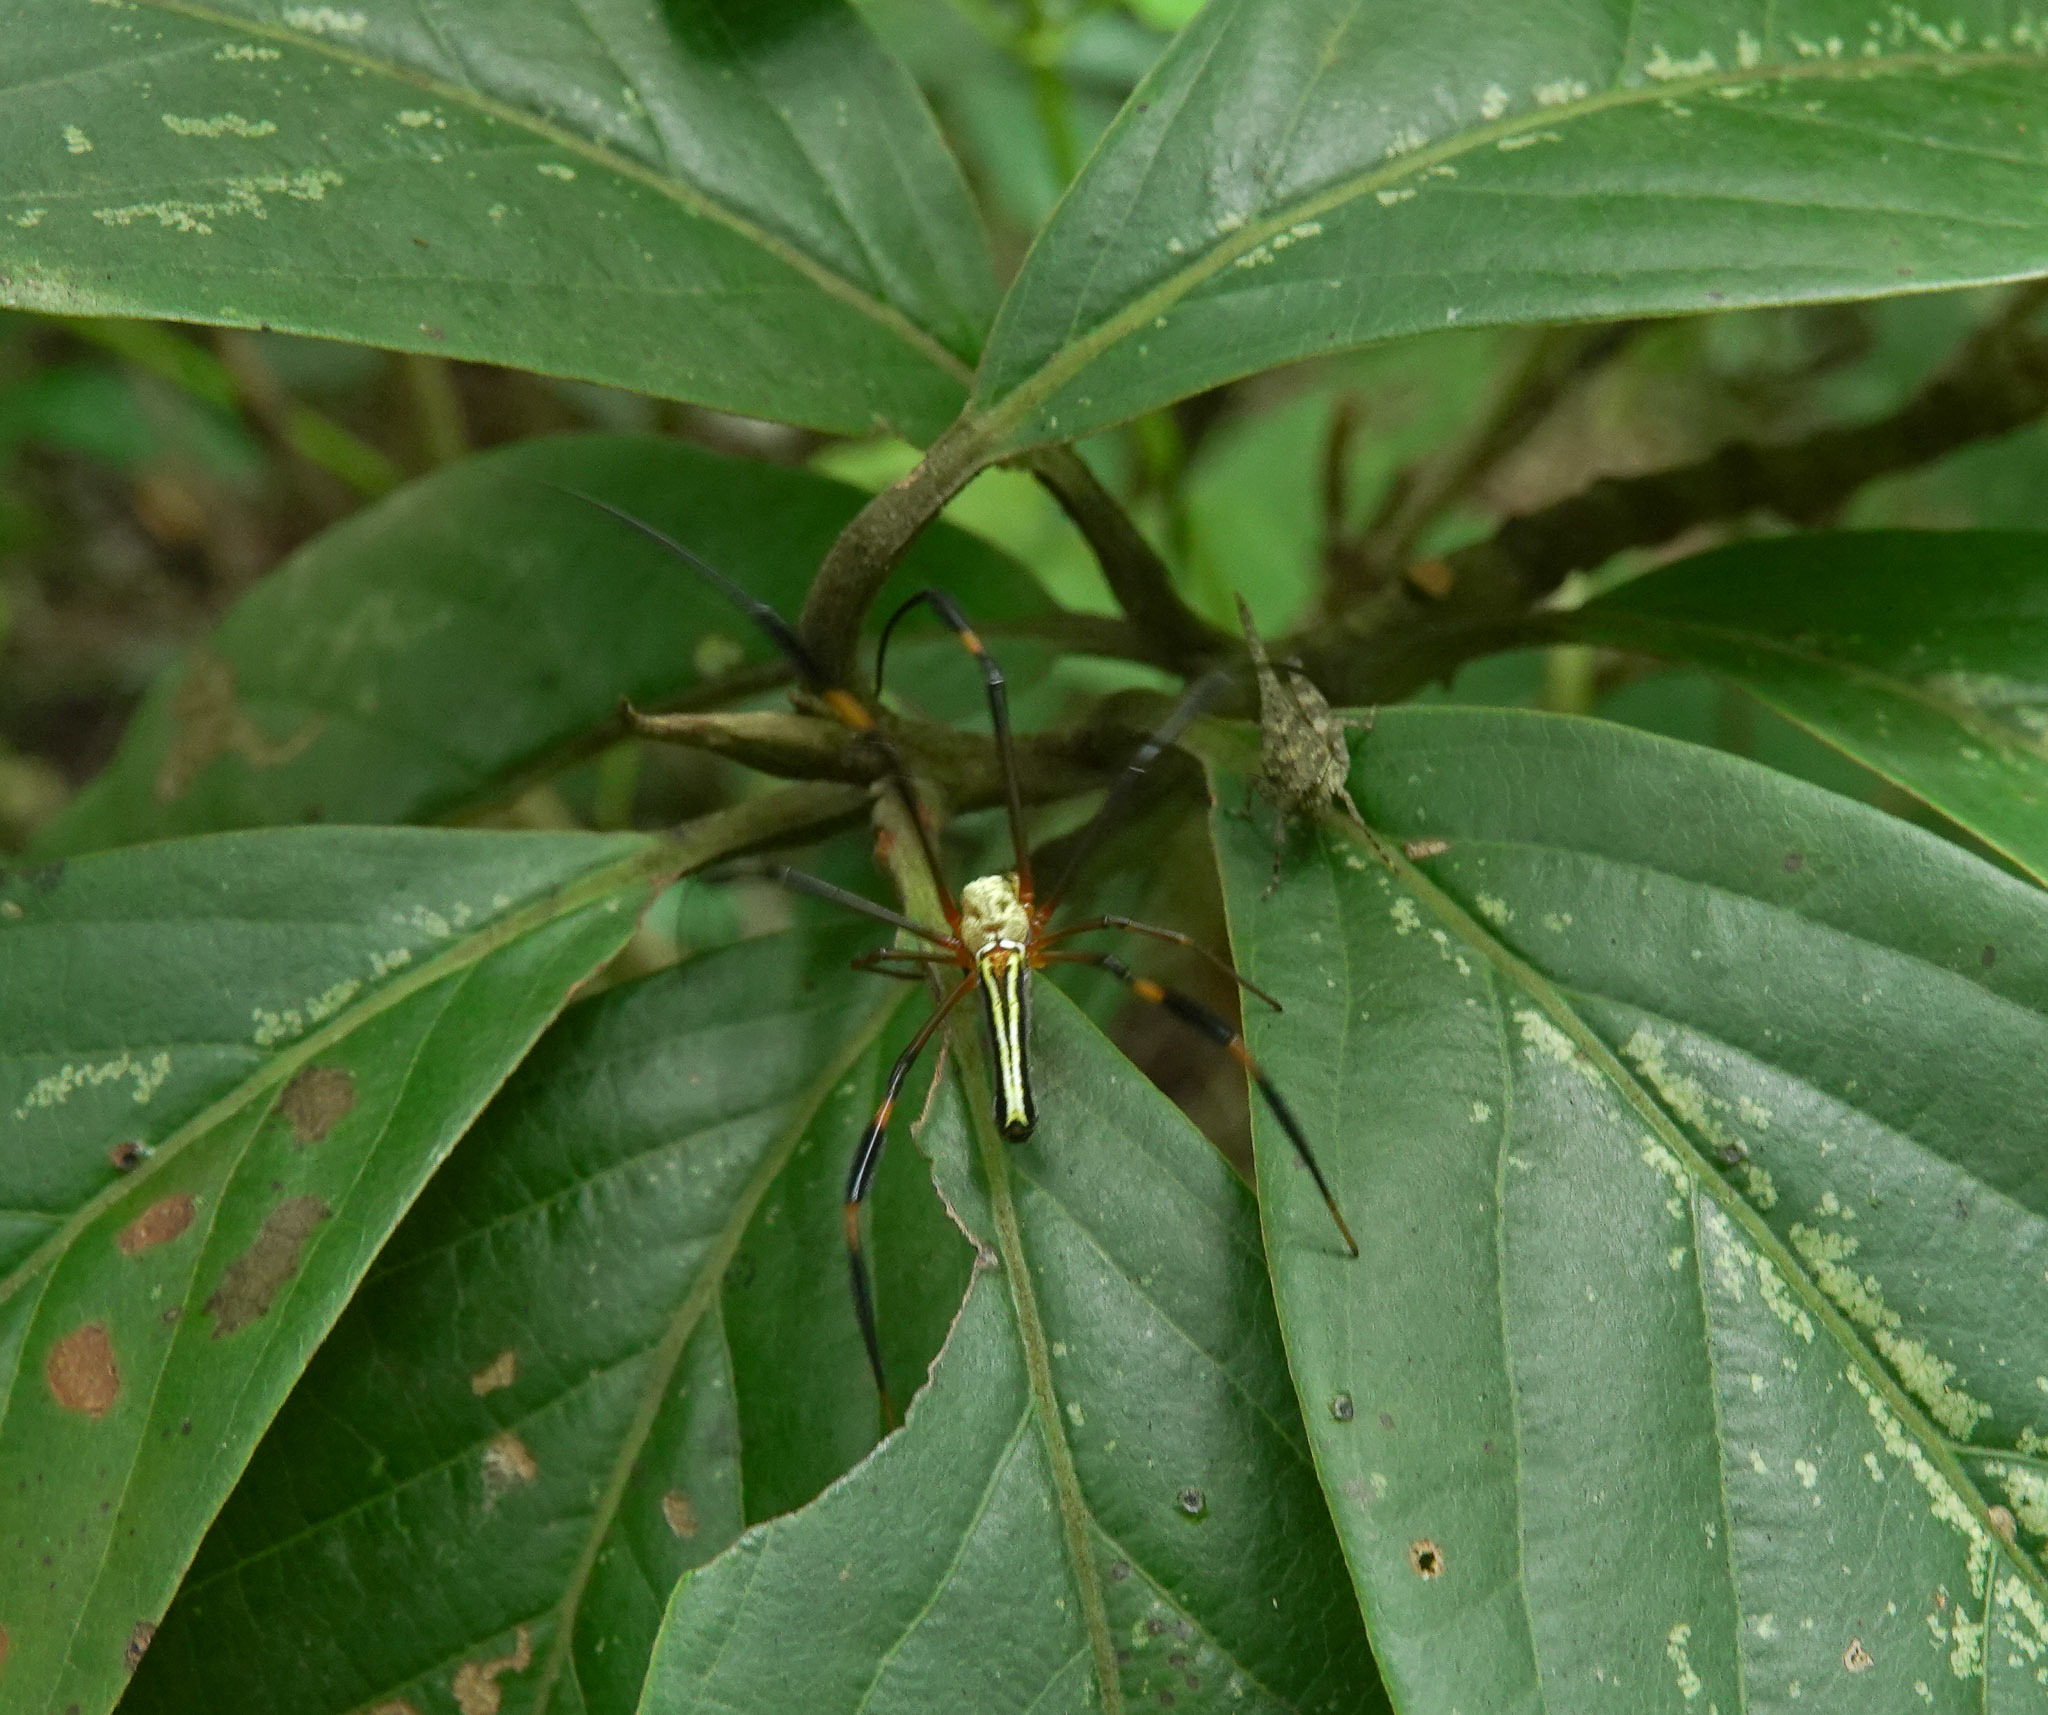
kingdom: Animalia
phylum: Arthropoda
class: Arachnida
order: Araneae
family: Araneidae
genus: Nephila
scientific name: Nephila pilipes
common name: Giant golden orb weaver
